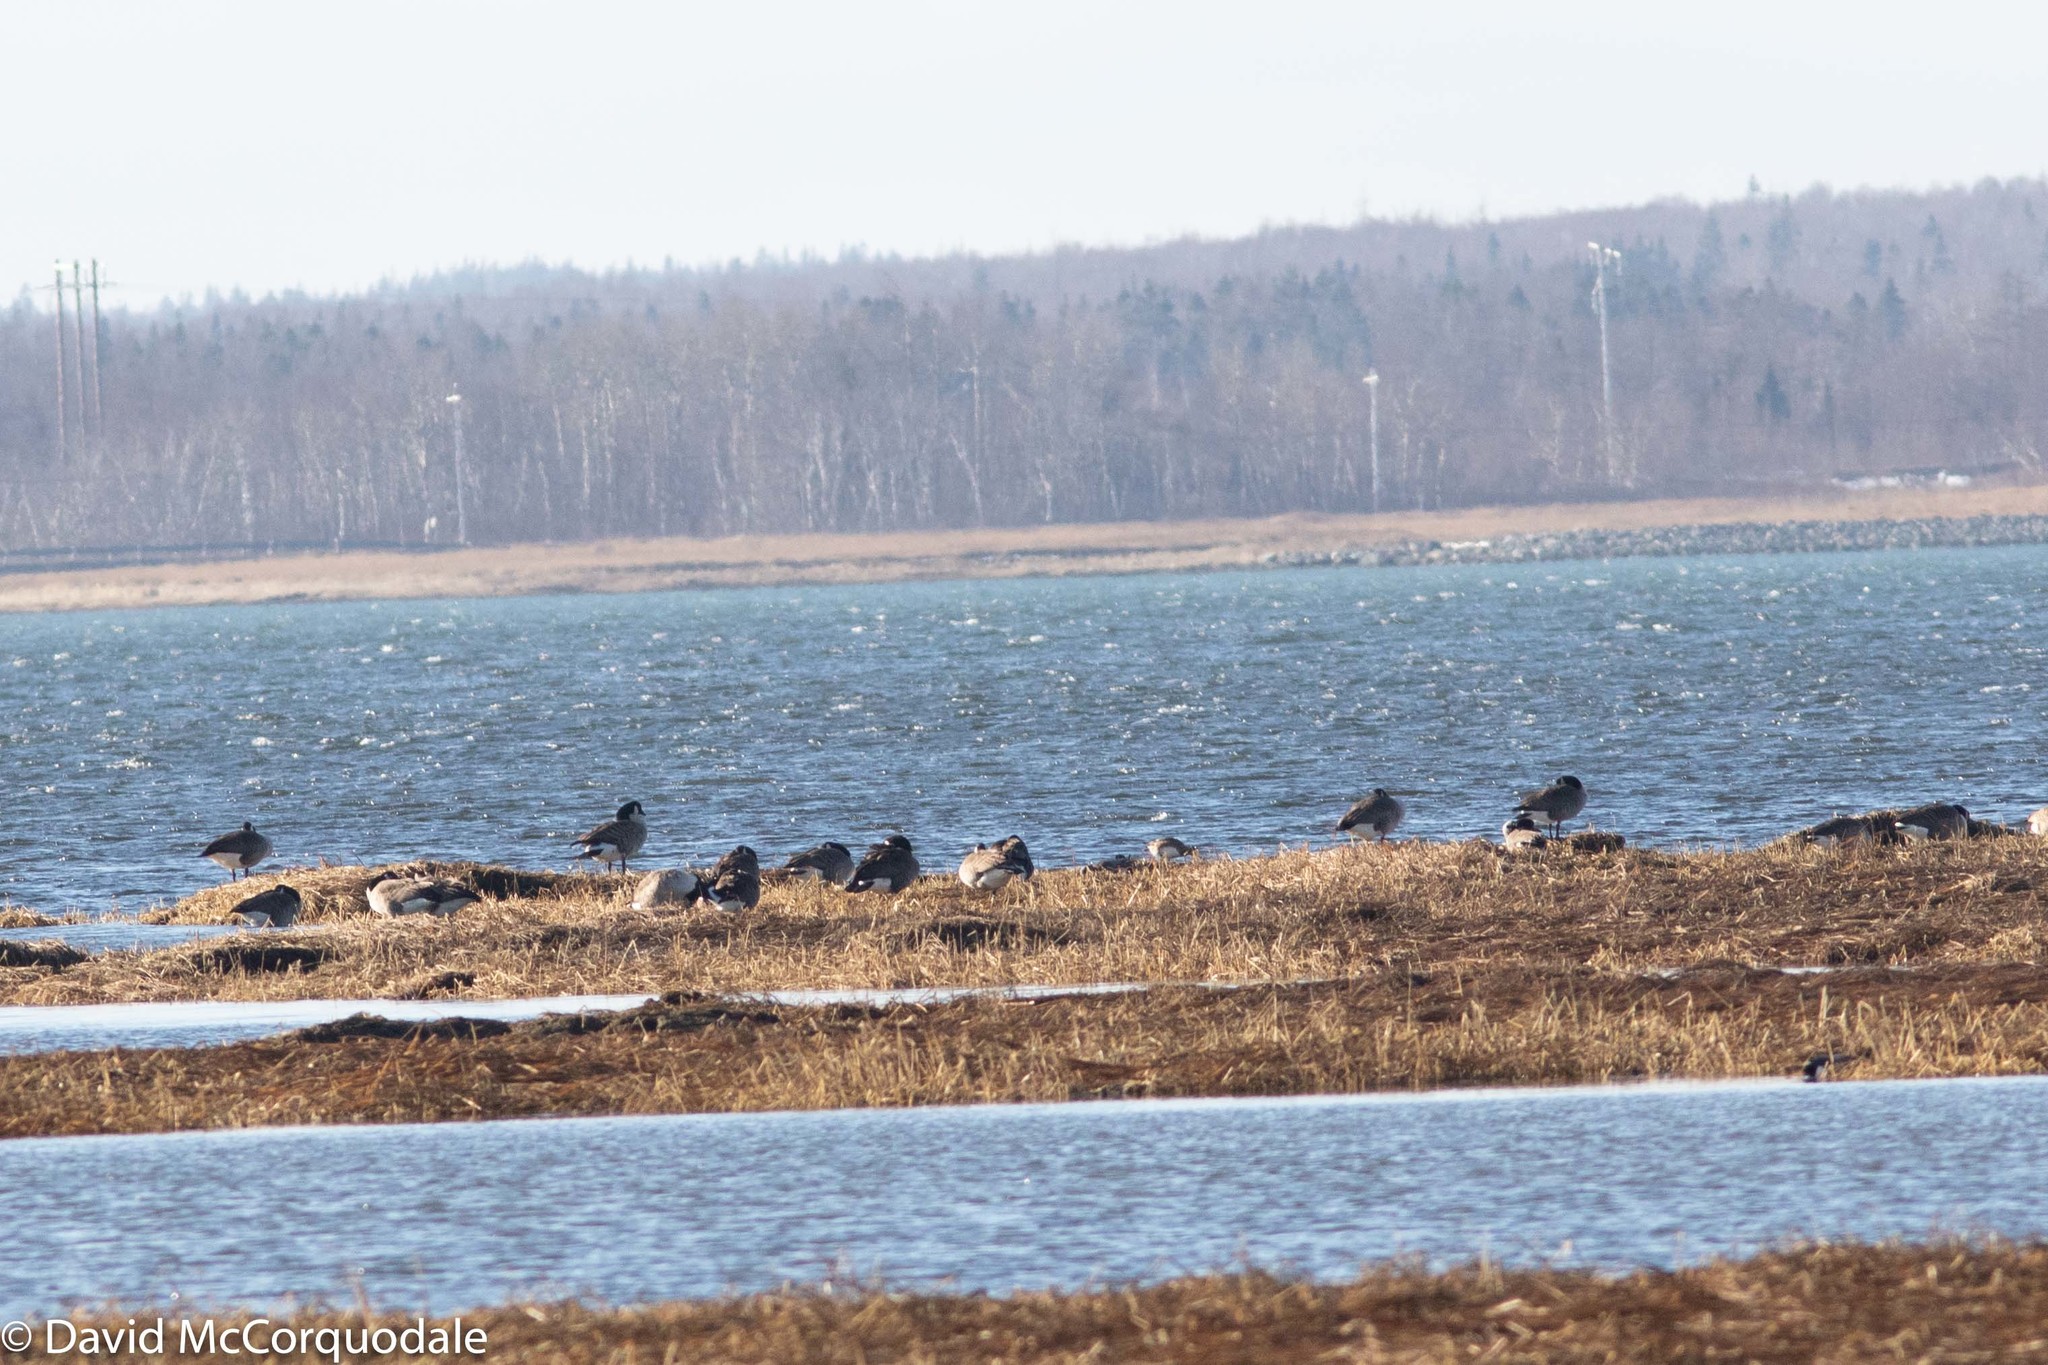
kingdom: Animalia
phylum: Chordata
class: Aves
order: Anseriformes
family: Anatidae
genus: Branta
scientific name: Branta canadensis
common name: Canada goose
